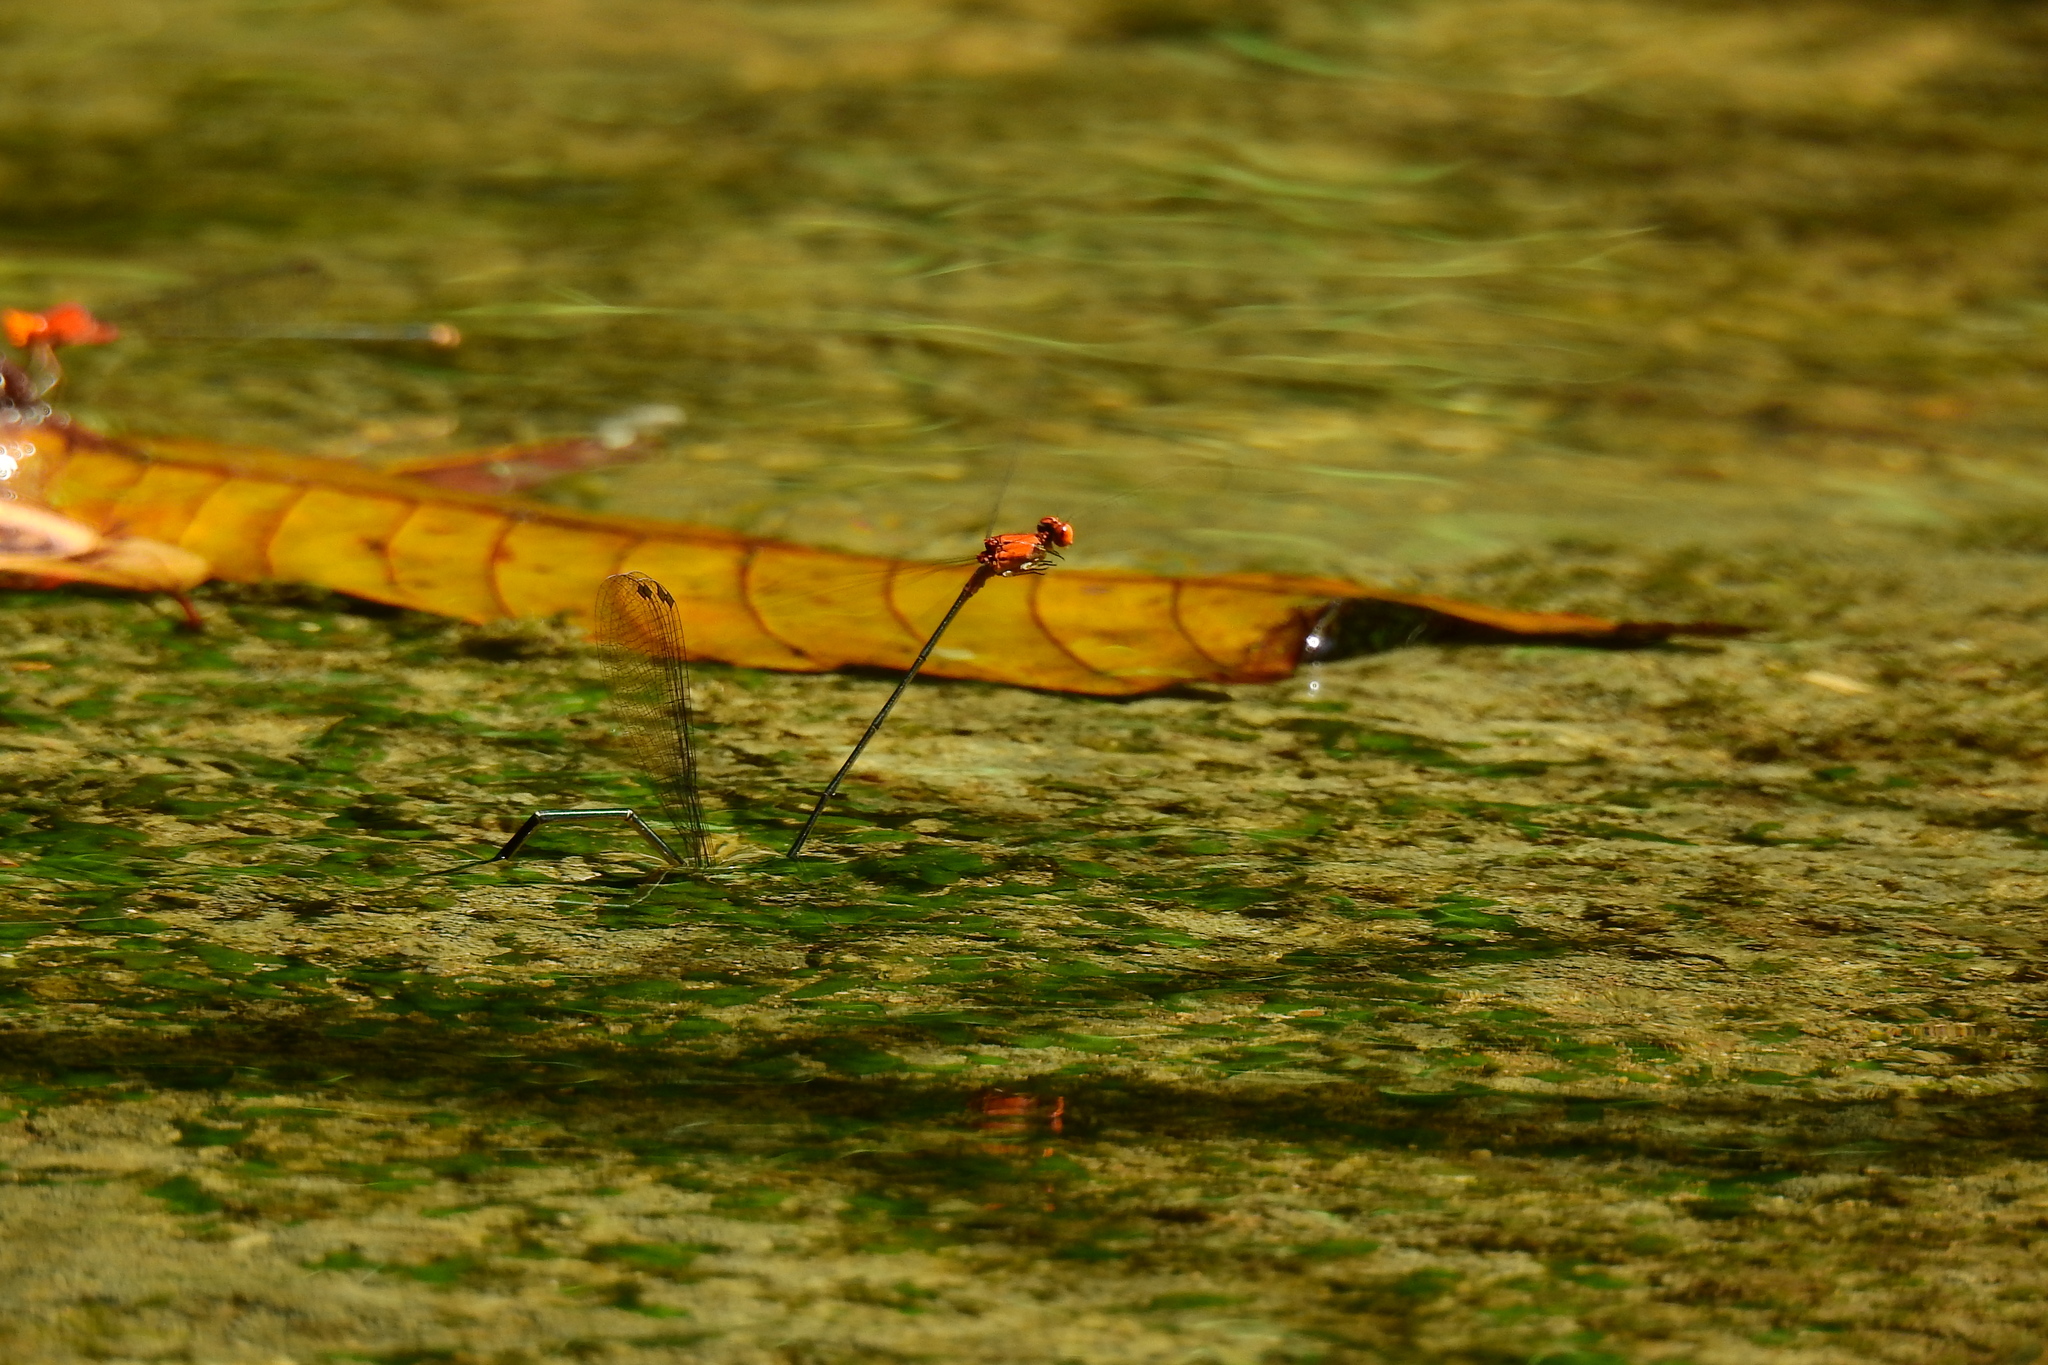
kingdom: Animalia
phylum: Arthropoda
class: Insecta
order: Odonata
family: Coenagrionidae
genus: Pseudagrion
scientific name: Pseudagrion ustum
